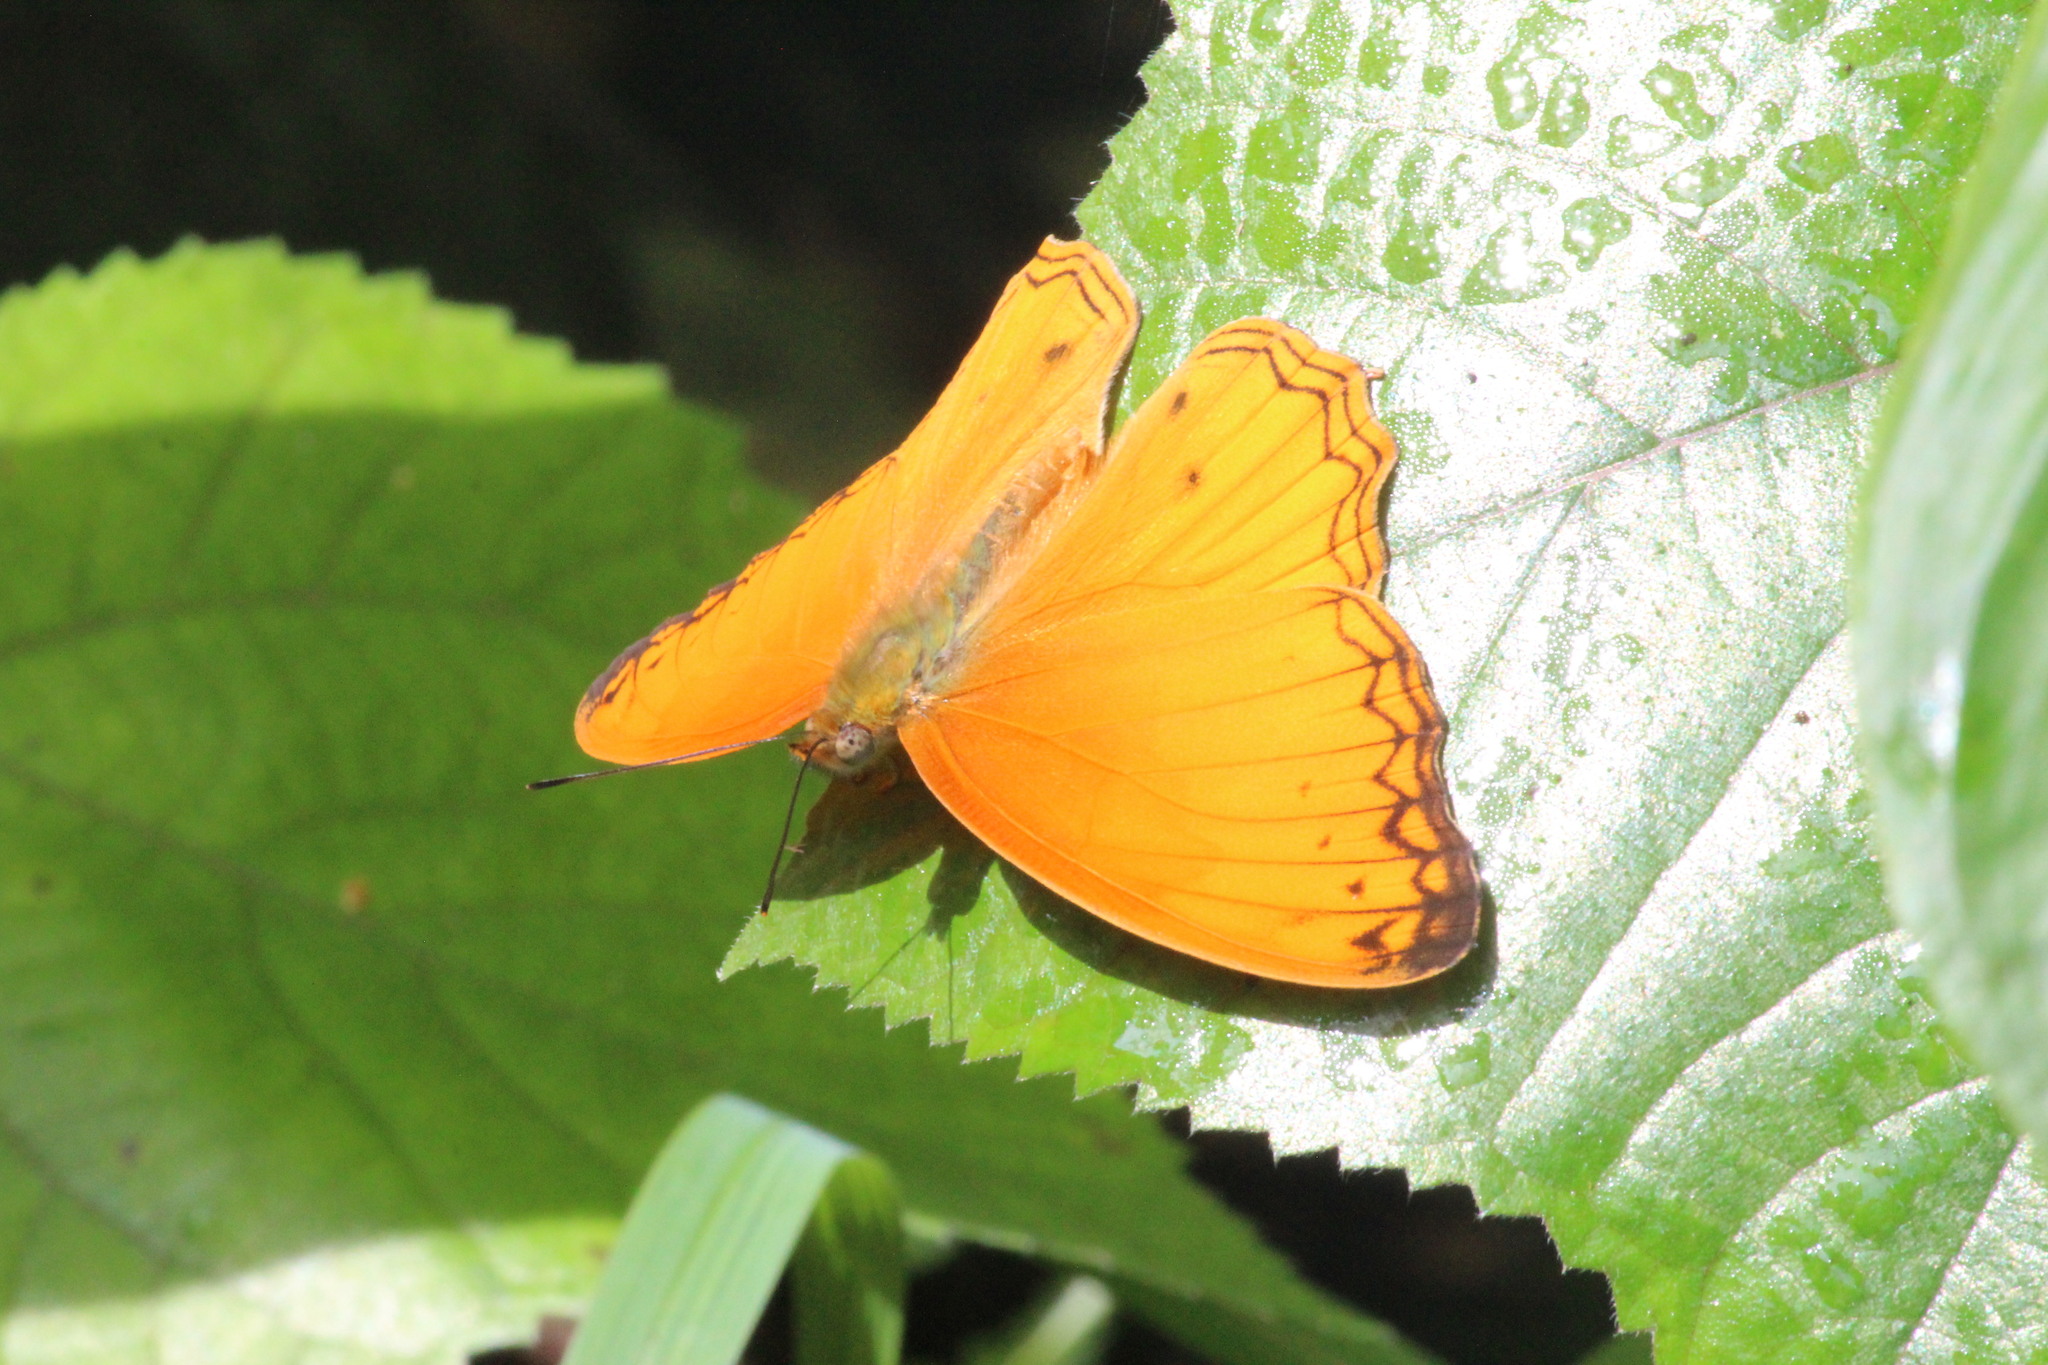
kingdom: Animalia
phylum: Arthropoda
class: Insecta
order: Lepidoptera
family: Nymphalidae
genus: Lachnoptera
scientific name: Lachnoptera iole
